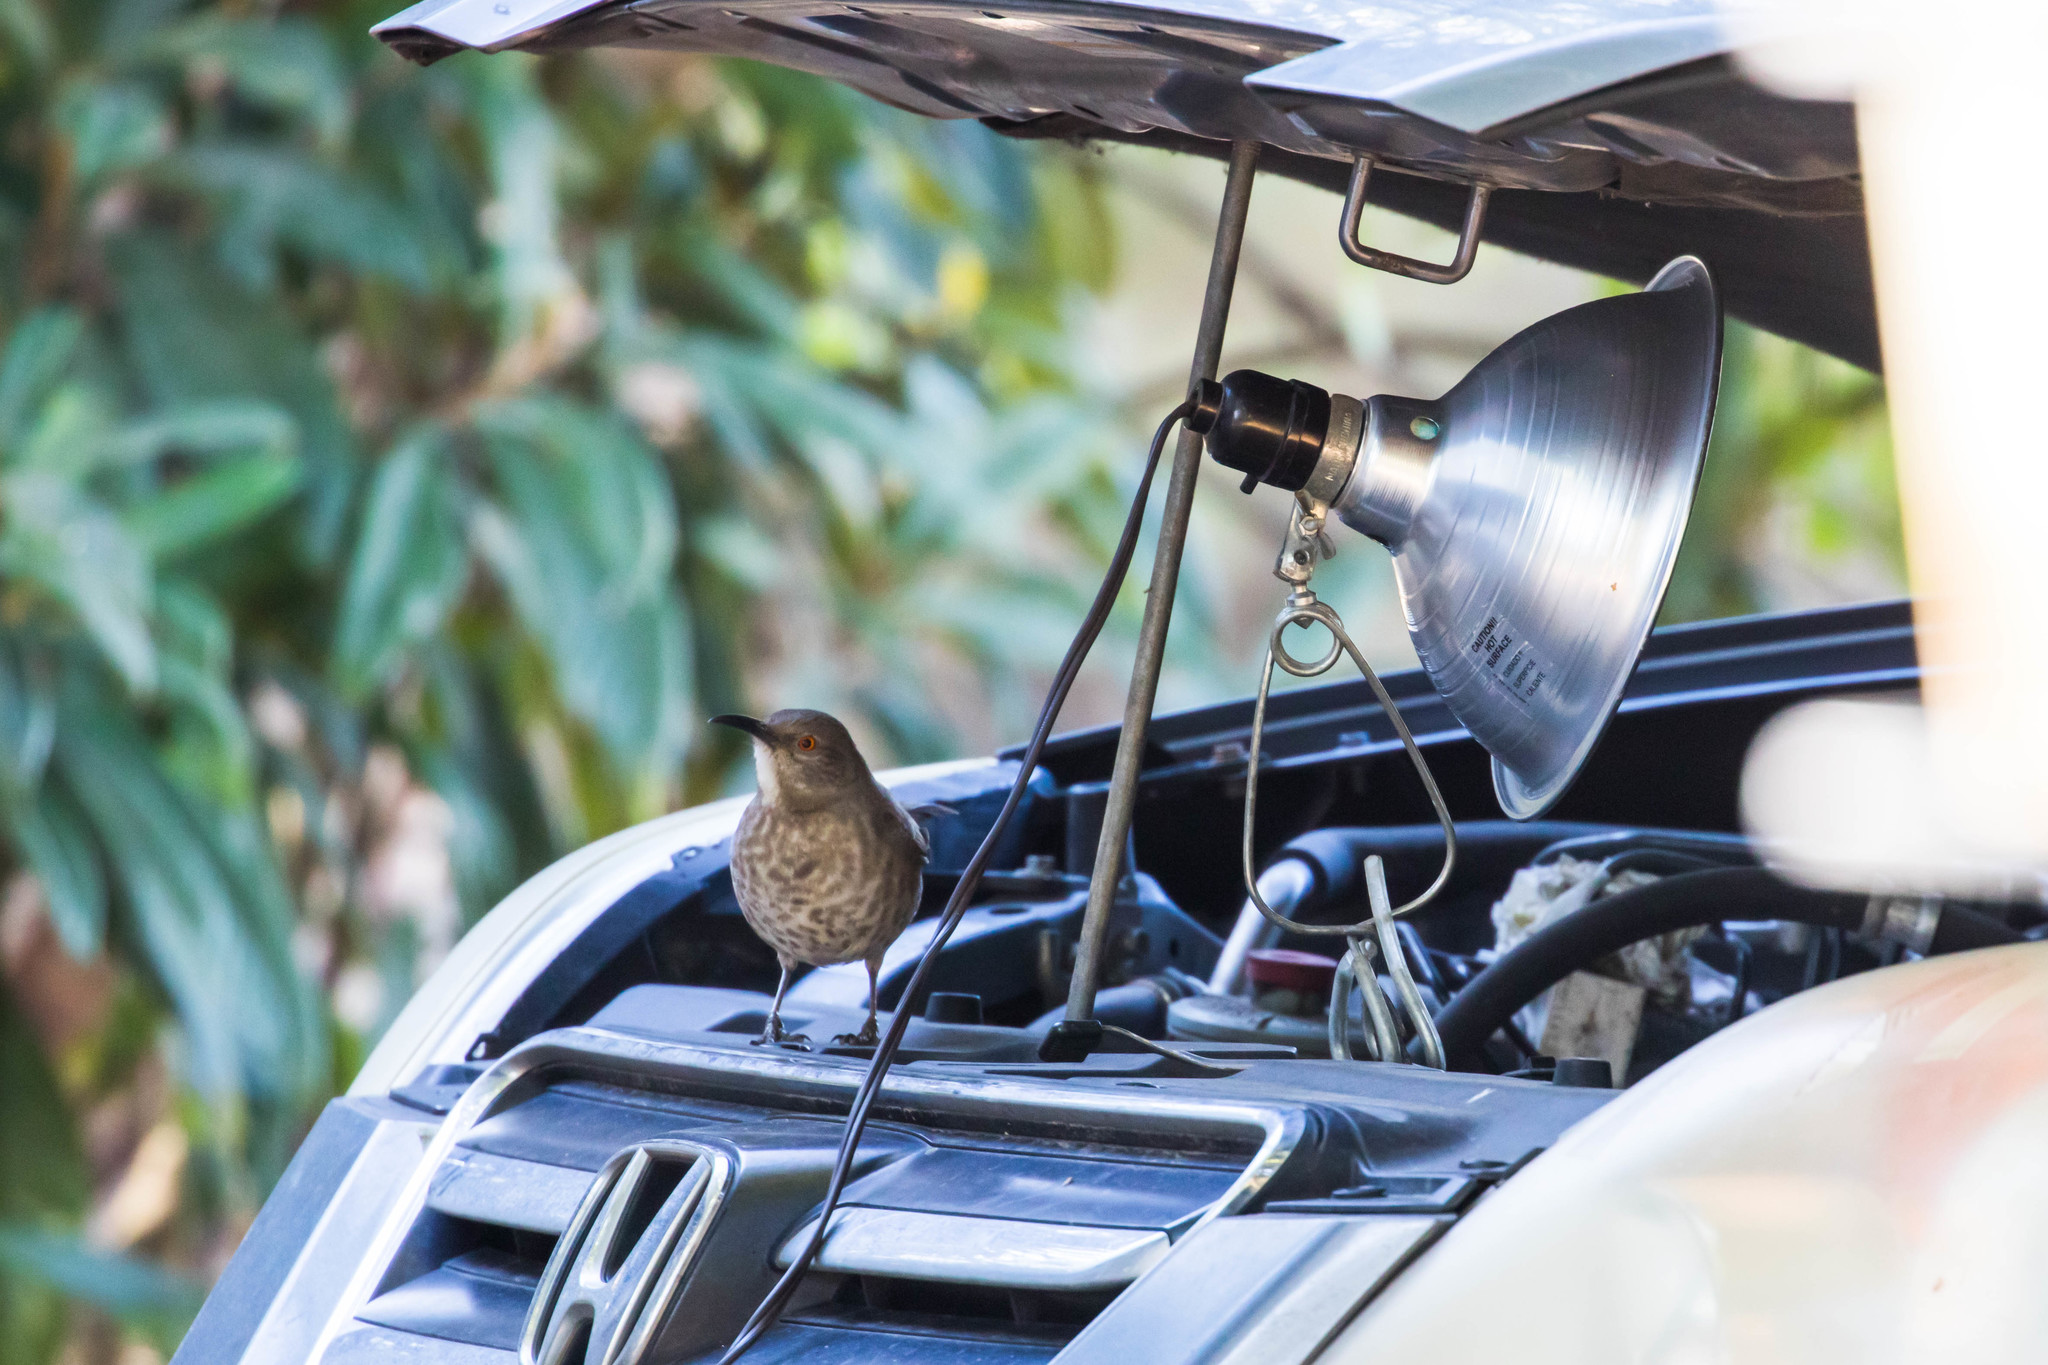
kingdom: Animalia
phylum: Chordata
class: Aves
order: Passeriformes
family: Mimidae
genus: Toxostoma
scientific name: Toxostoma curvirostre
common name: Curve-billed thrasher
